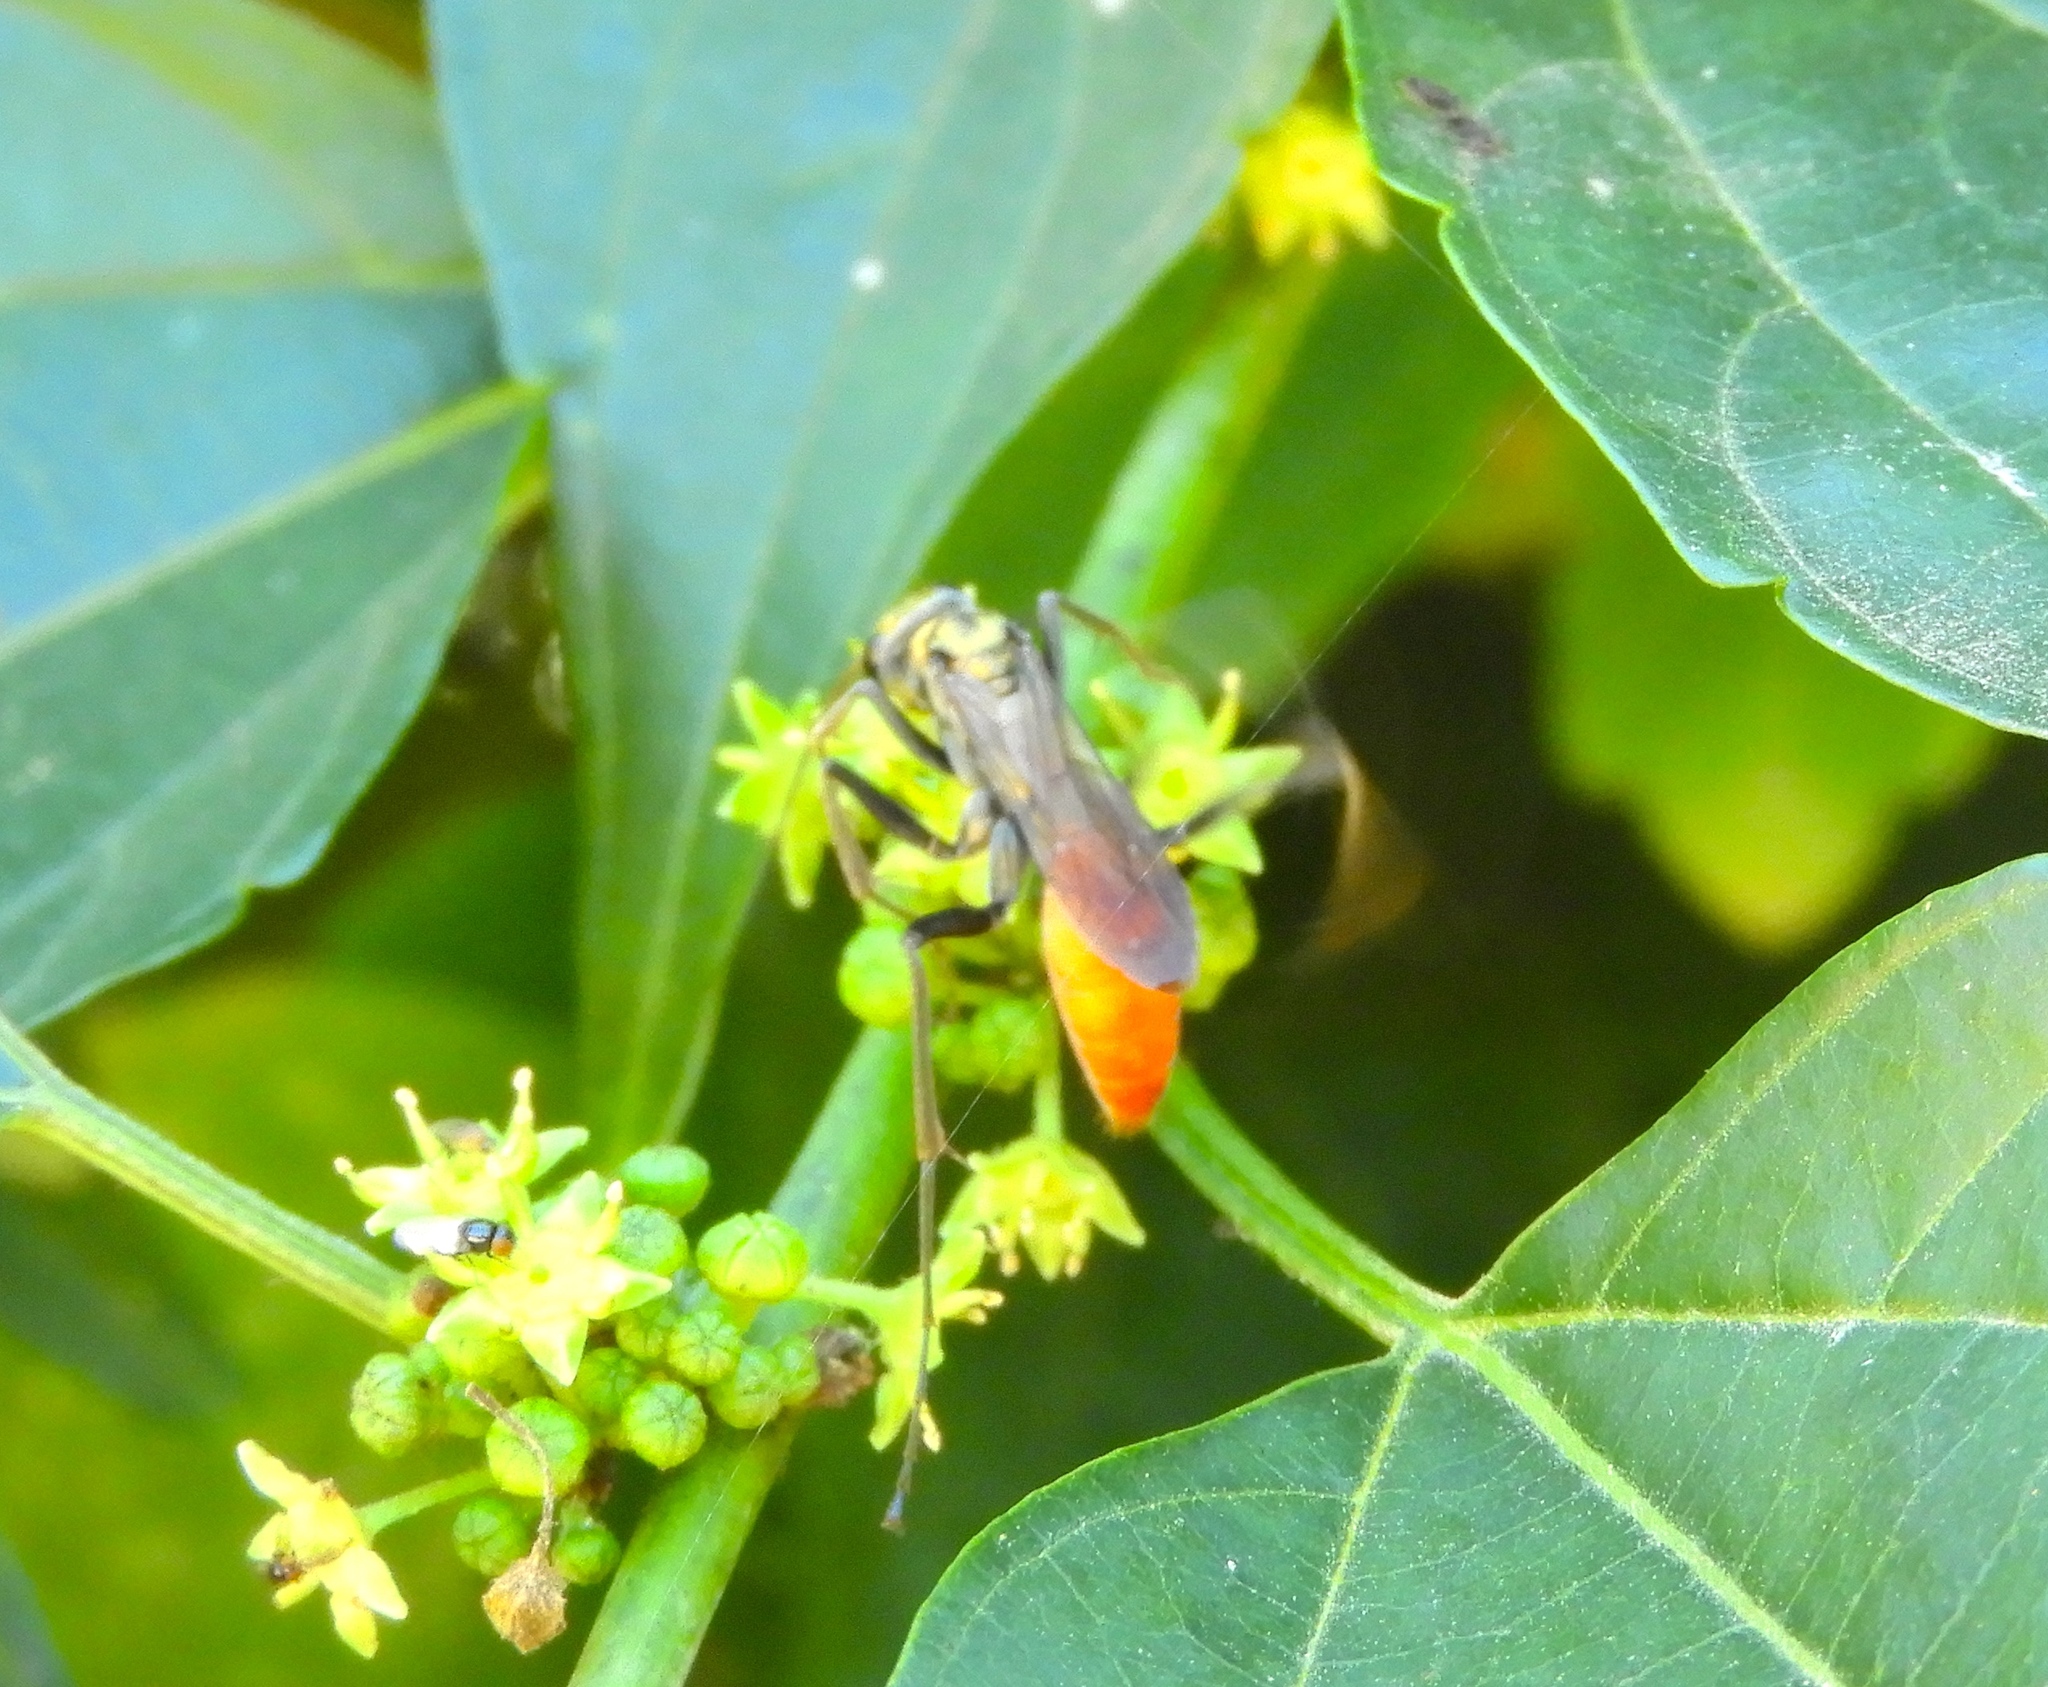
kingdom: Animalia
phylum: Arthropoda
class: Insecta
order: Hymenoptera
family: Pompilidae
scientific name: Pompilidae
